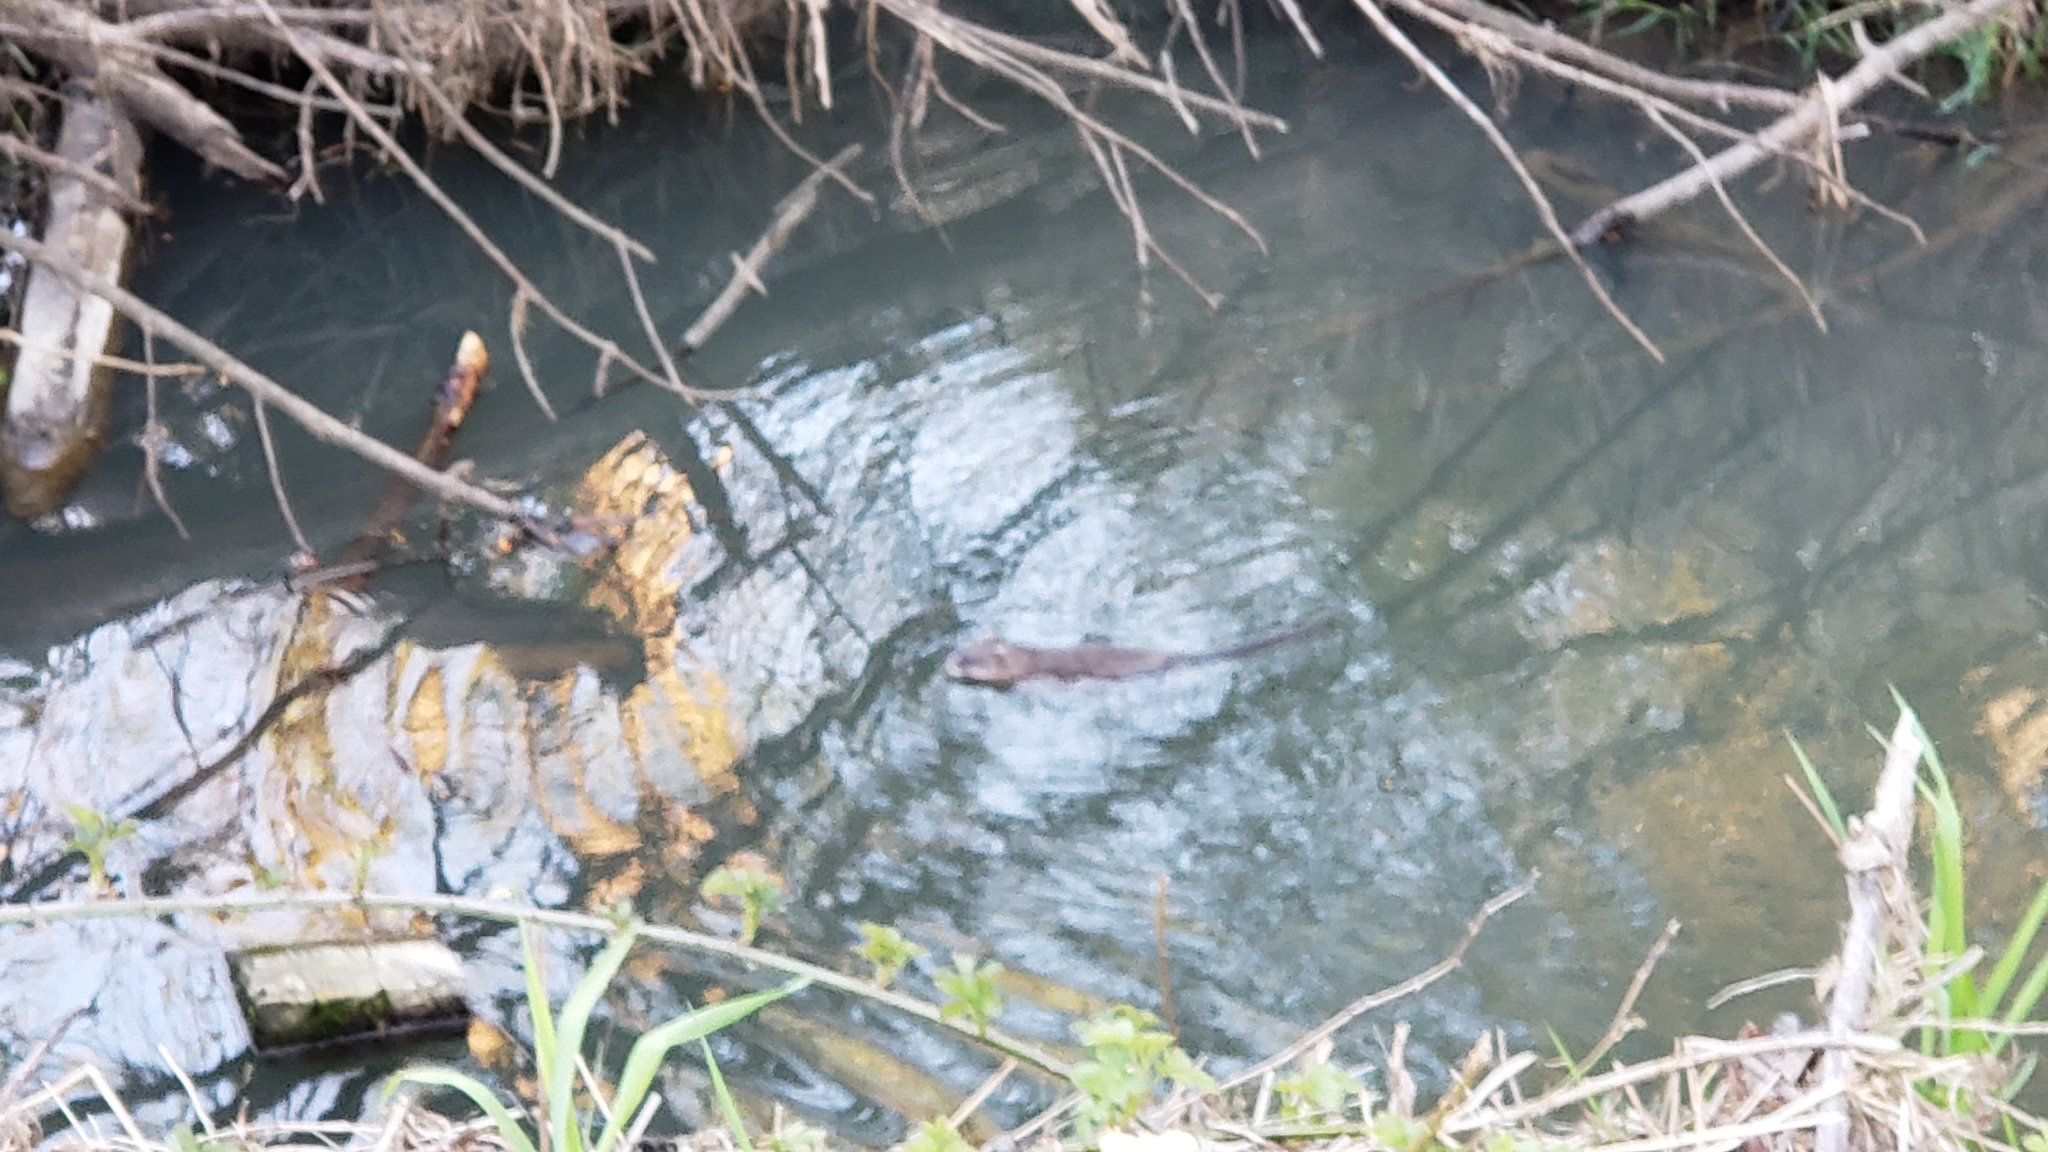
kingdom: Animalia
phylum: Chordata
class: Mammalia
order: Rodentia
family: Cricetidae
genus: Ondatra
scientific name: Ondatra zibethicus
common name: Muskrat
